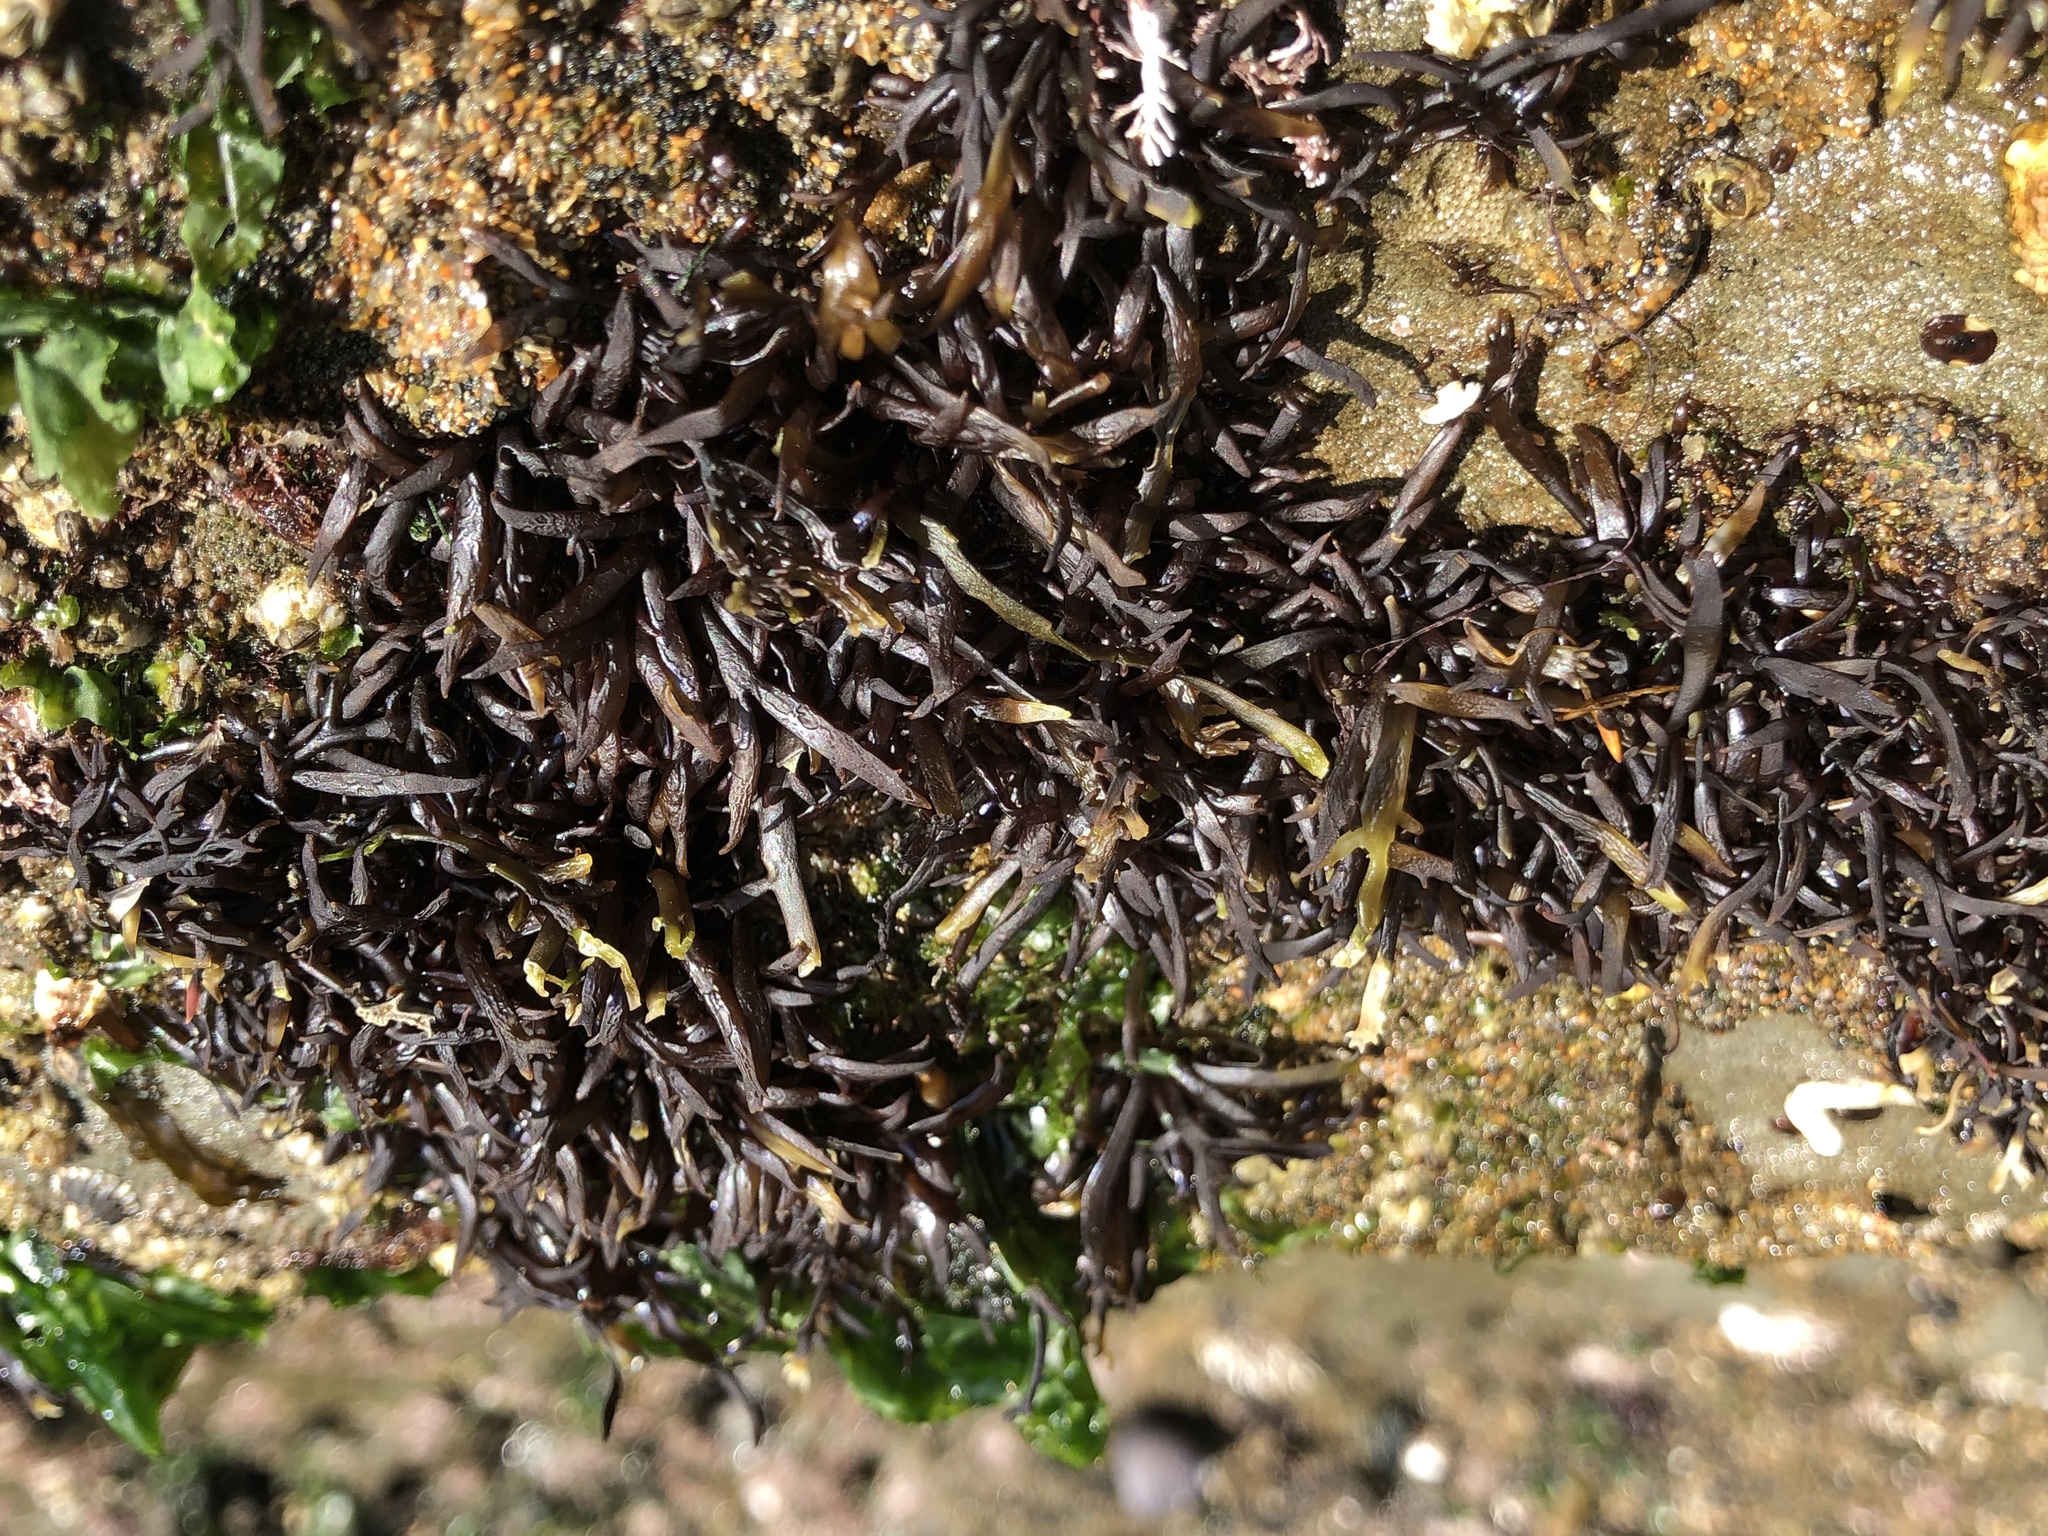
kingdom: Plantae
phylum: Rhodophyta
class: Florideophyceae
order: Gigartinales
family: Gigartinaceae
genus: Chondracanthus
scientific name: Chondracanthus canaliculatus
